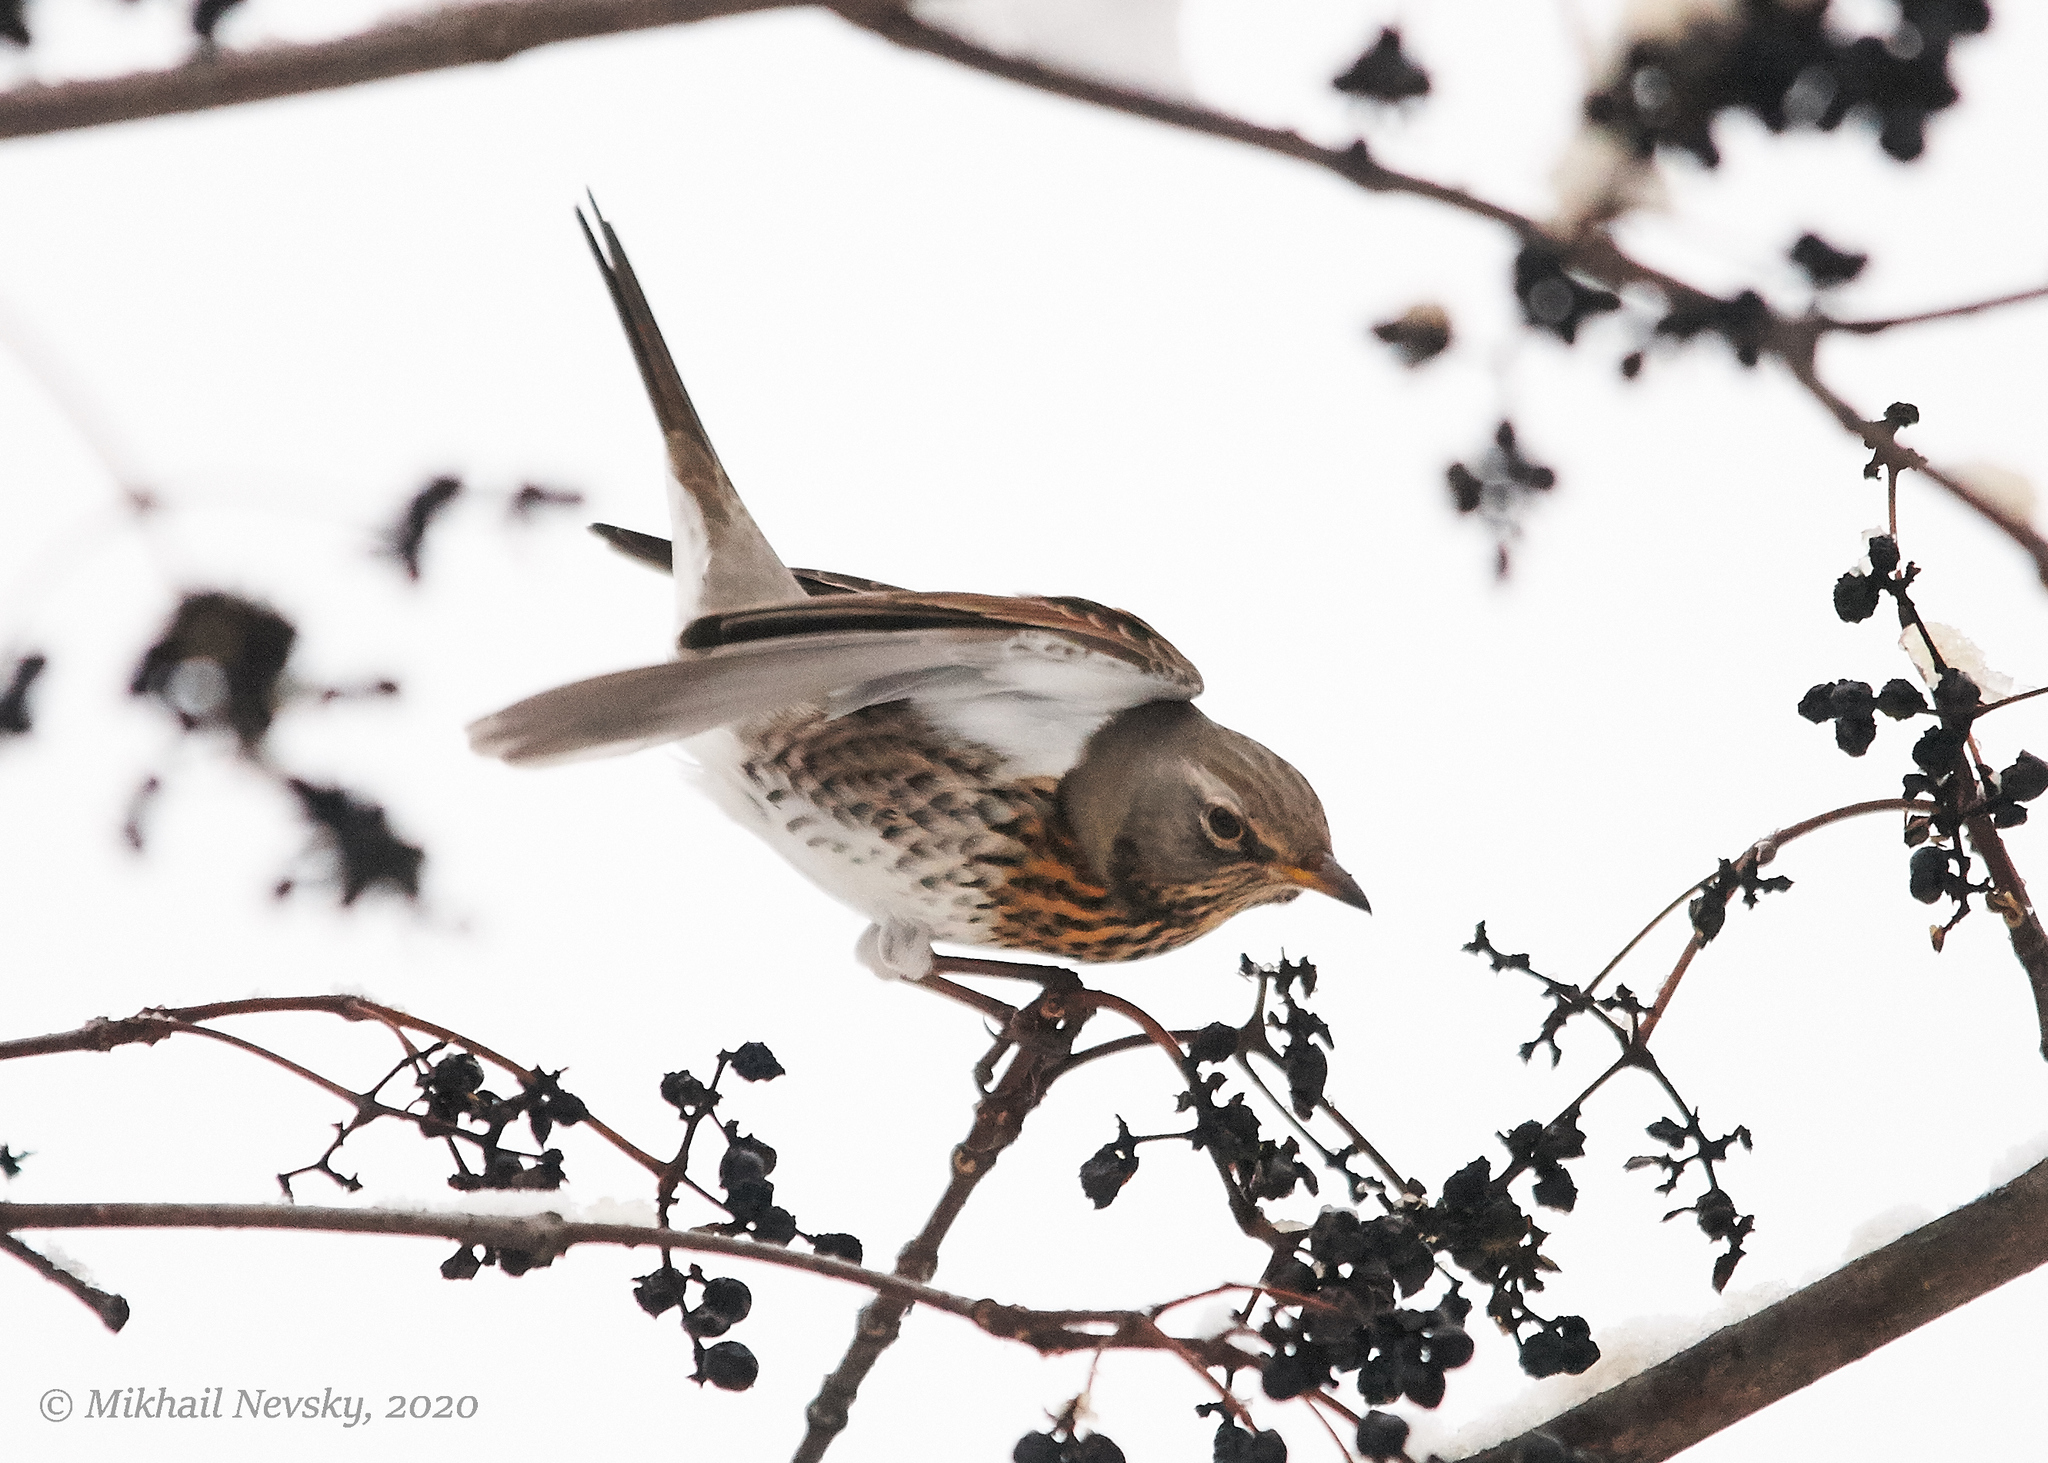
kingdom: Animalia
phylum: Chordata
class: Aves
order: Passeriformes
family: Turdidae
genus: Turdus
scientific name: Turdus pilaris
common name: Fieldfare
